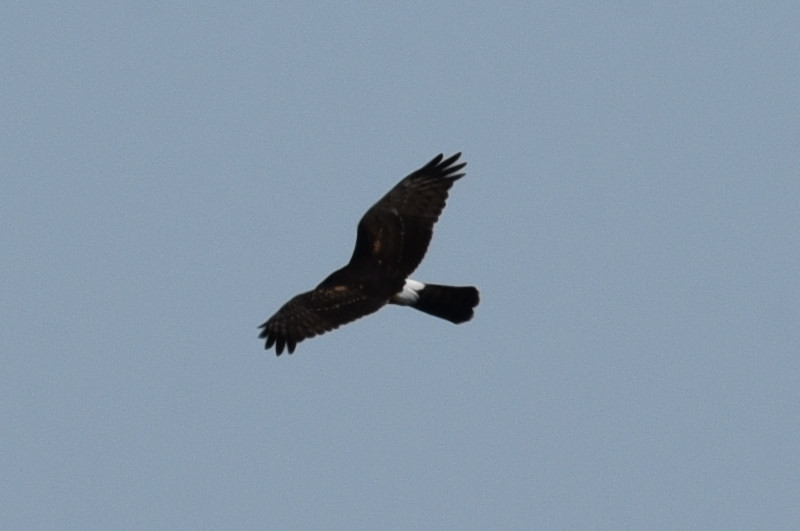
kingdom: Animalia
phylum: Chordata
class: Aves
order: Accipitriformes
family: Accipitridae
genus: Circus
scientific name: Circus cyaneus
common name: Hen harrier
